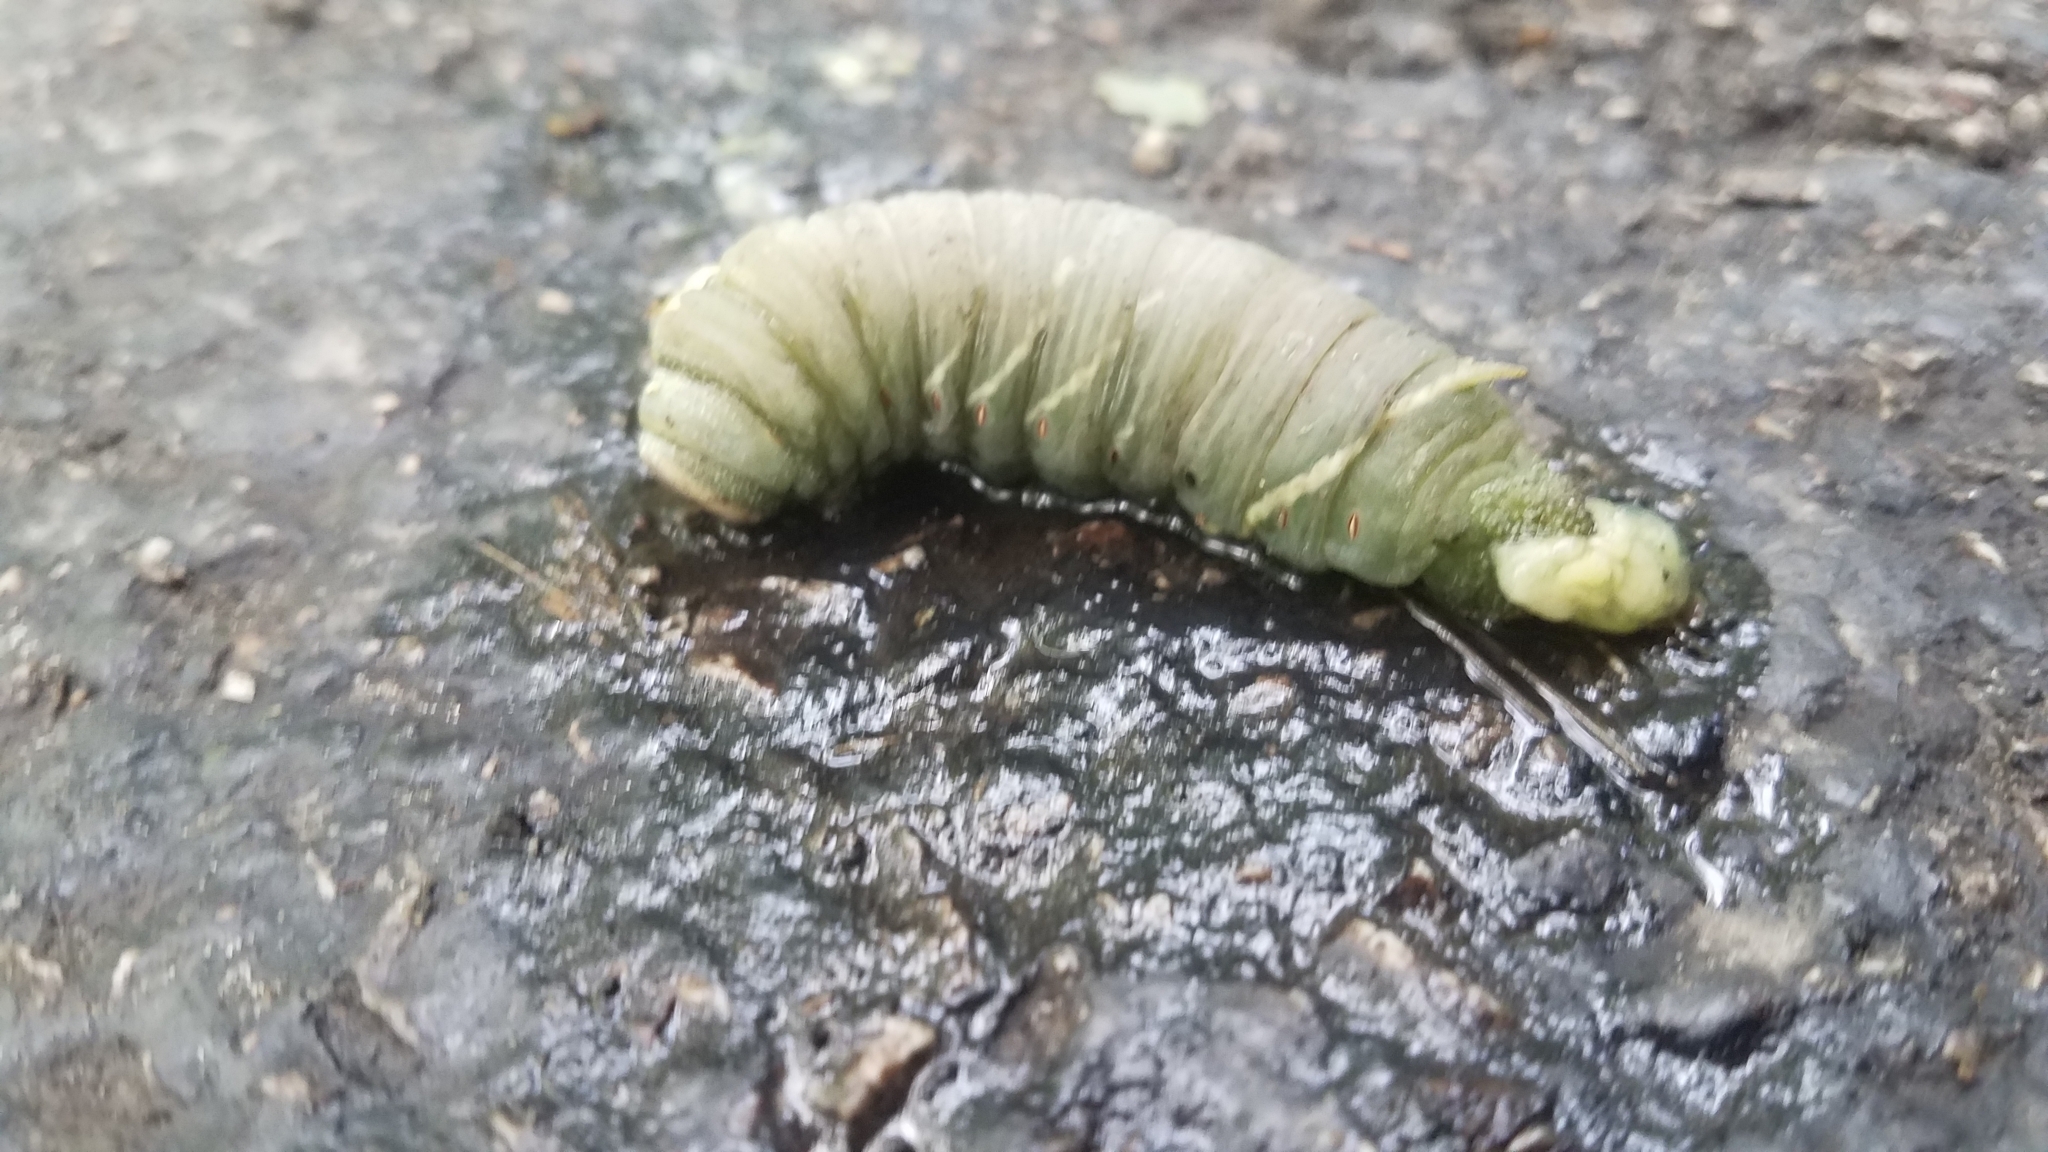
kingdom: Animalia
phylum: Arthropoda
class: Insecta
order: Lepidoptera
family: Sphingidae
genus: Pachysphinx
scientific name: Pachysphinx modesta
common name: Big poplar sphinx
